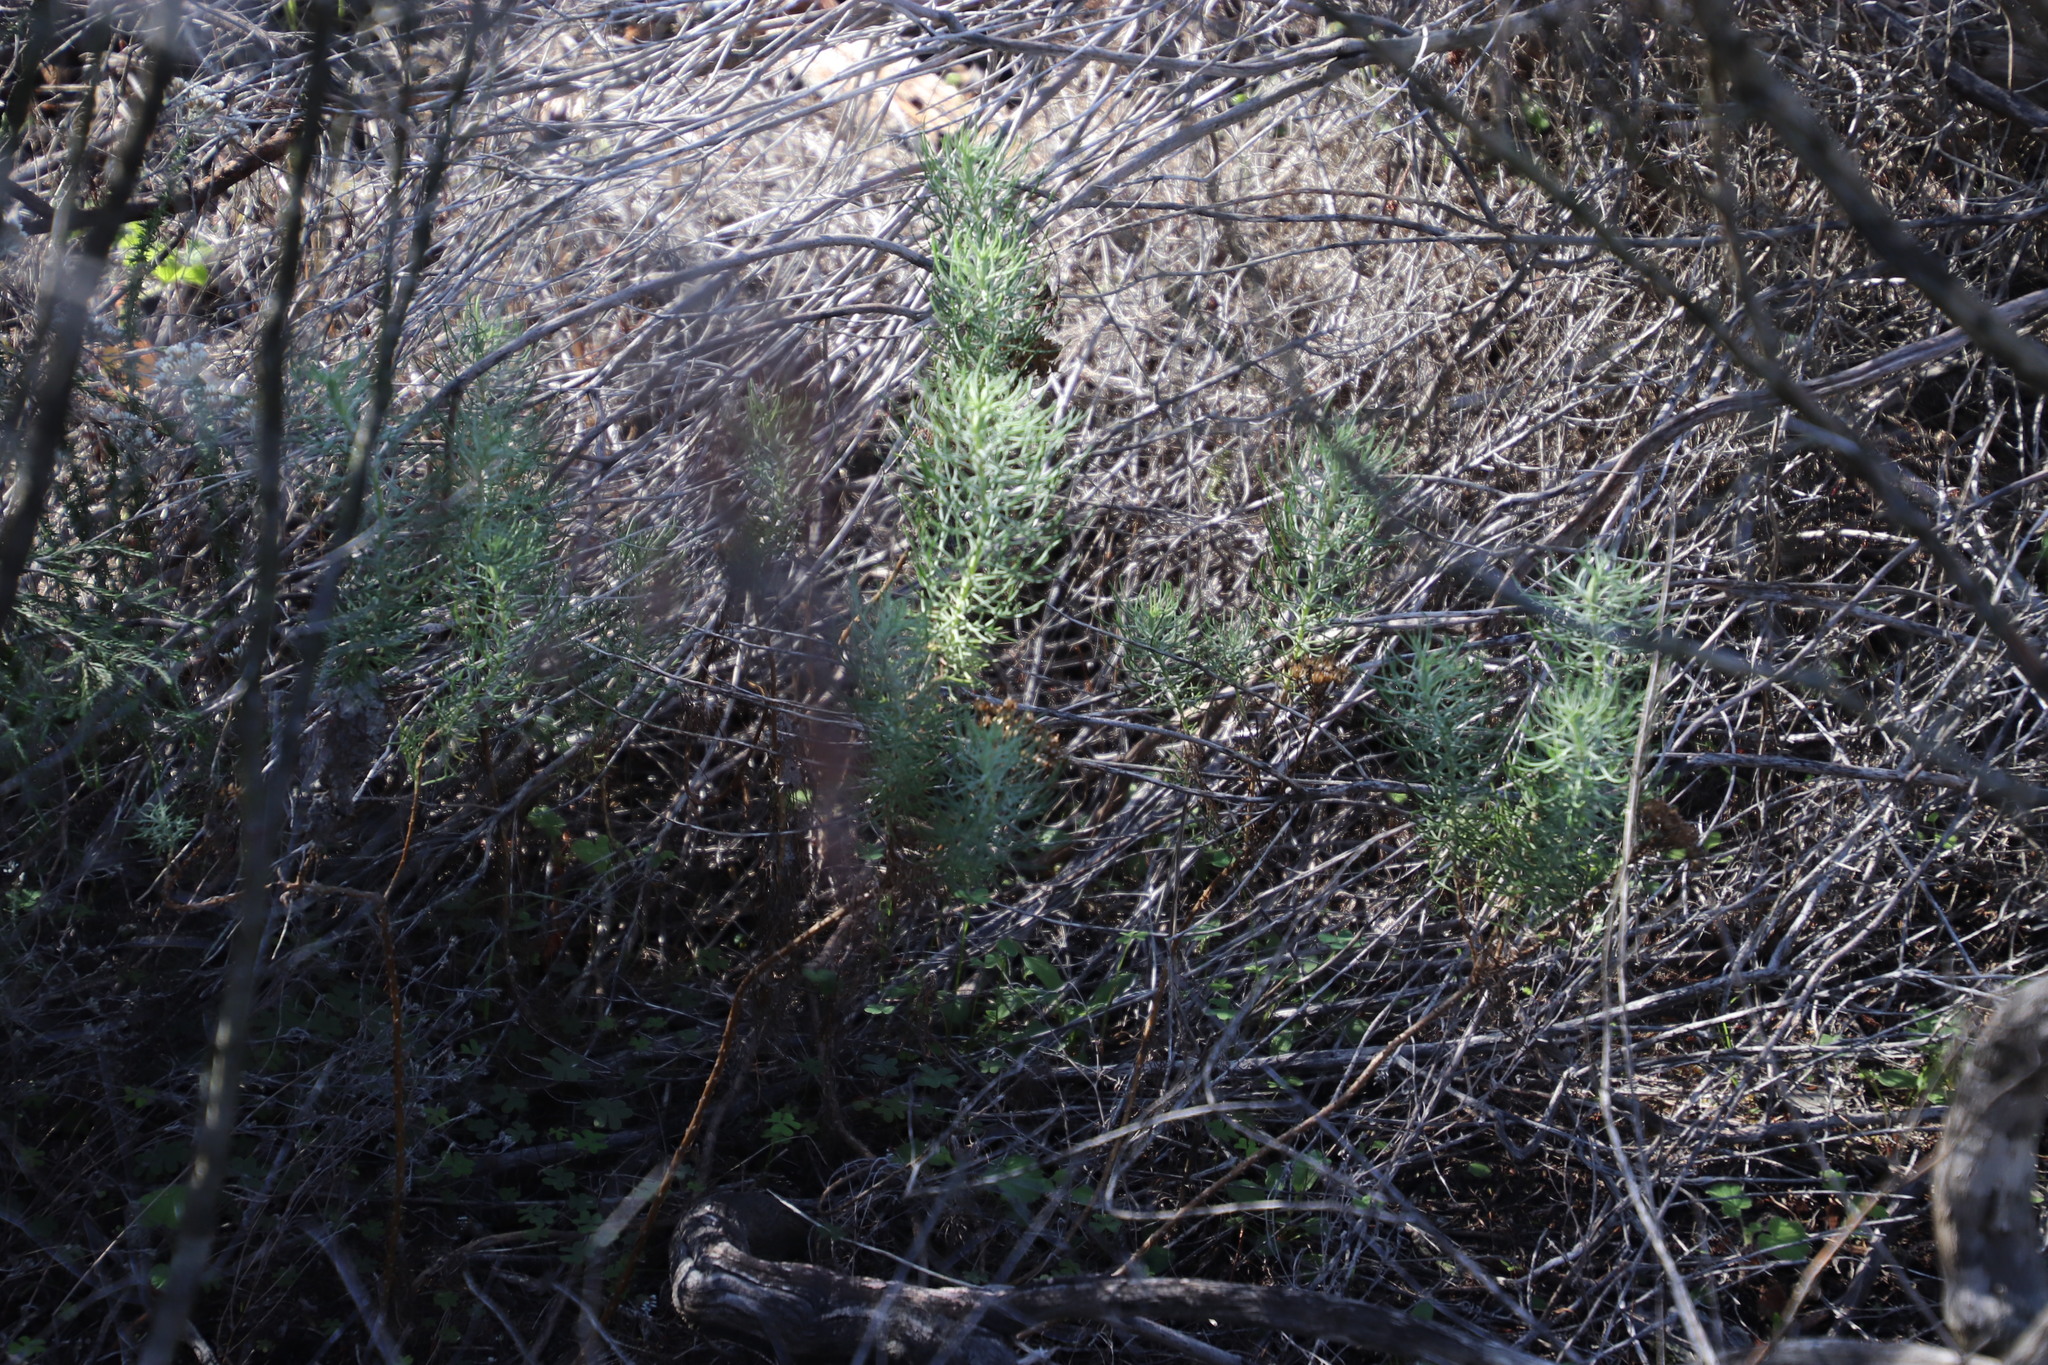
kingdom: Plantae
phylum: Tracheophyta
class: Magnoliopsida
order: Asterales
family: Asteraceae
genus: Athanasia
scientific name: Athanasia crithmifolia
